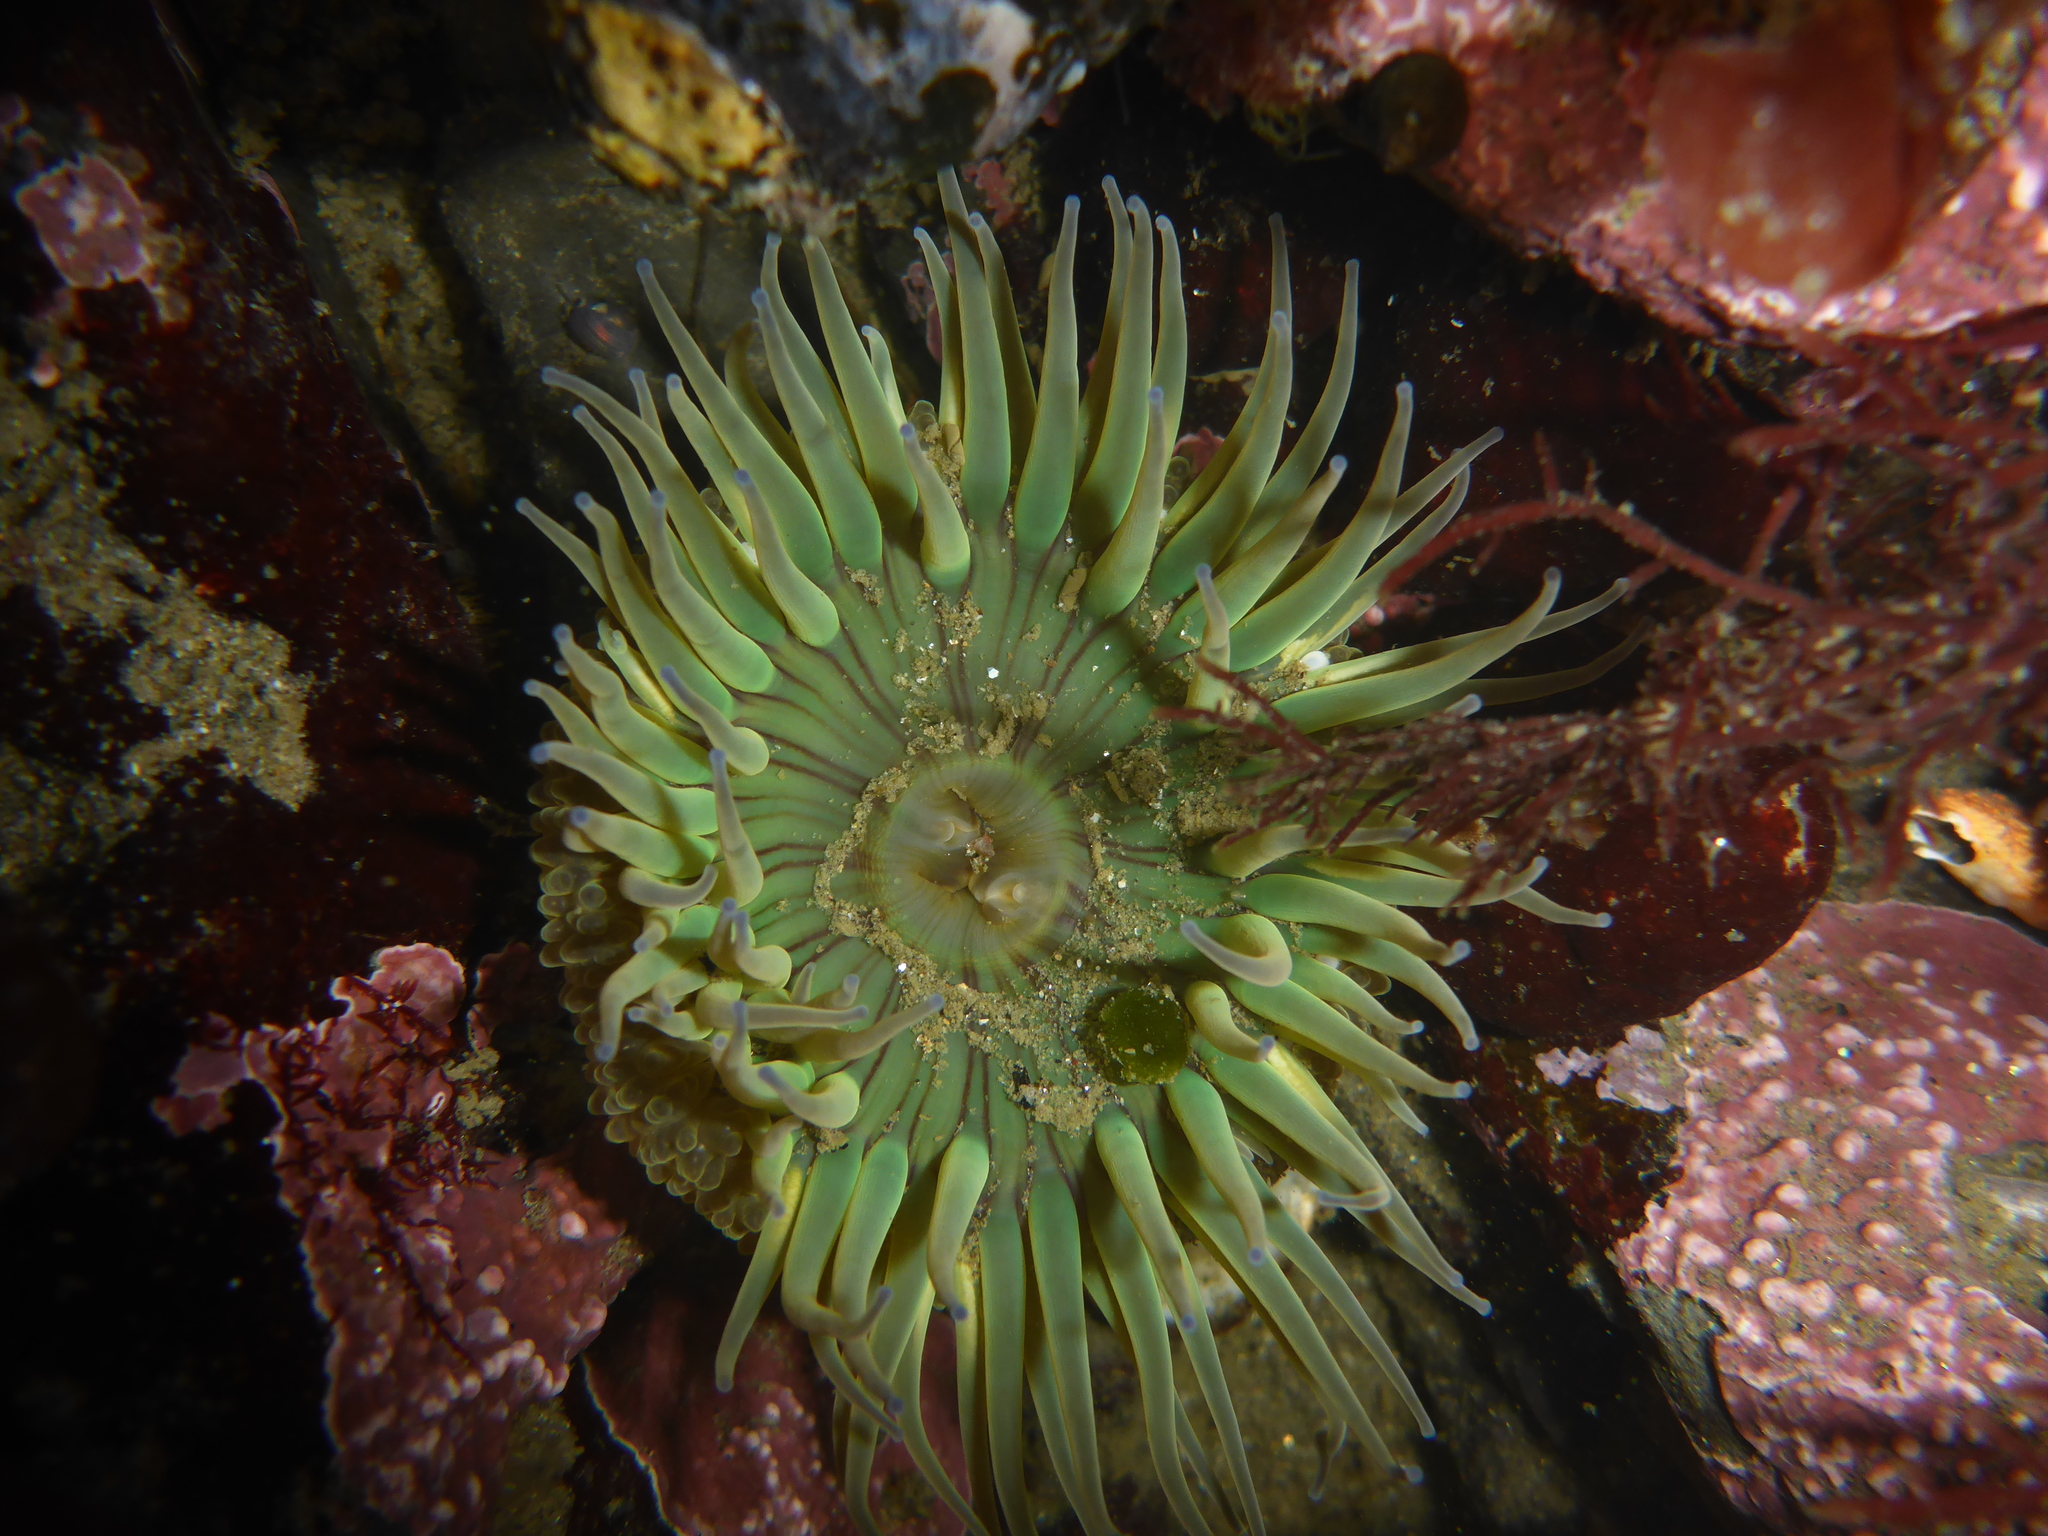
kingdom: Animalia
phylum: Cnidaria
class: Anthozoa
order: Actiniaria
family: Actiniidae
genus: Anthopleura
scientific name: Anthopleura sola
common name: Sun anemone
